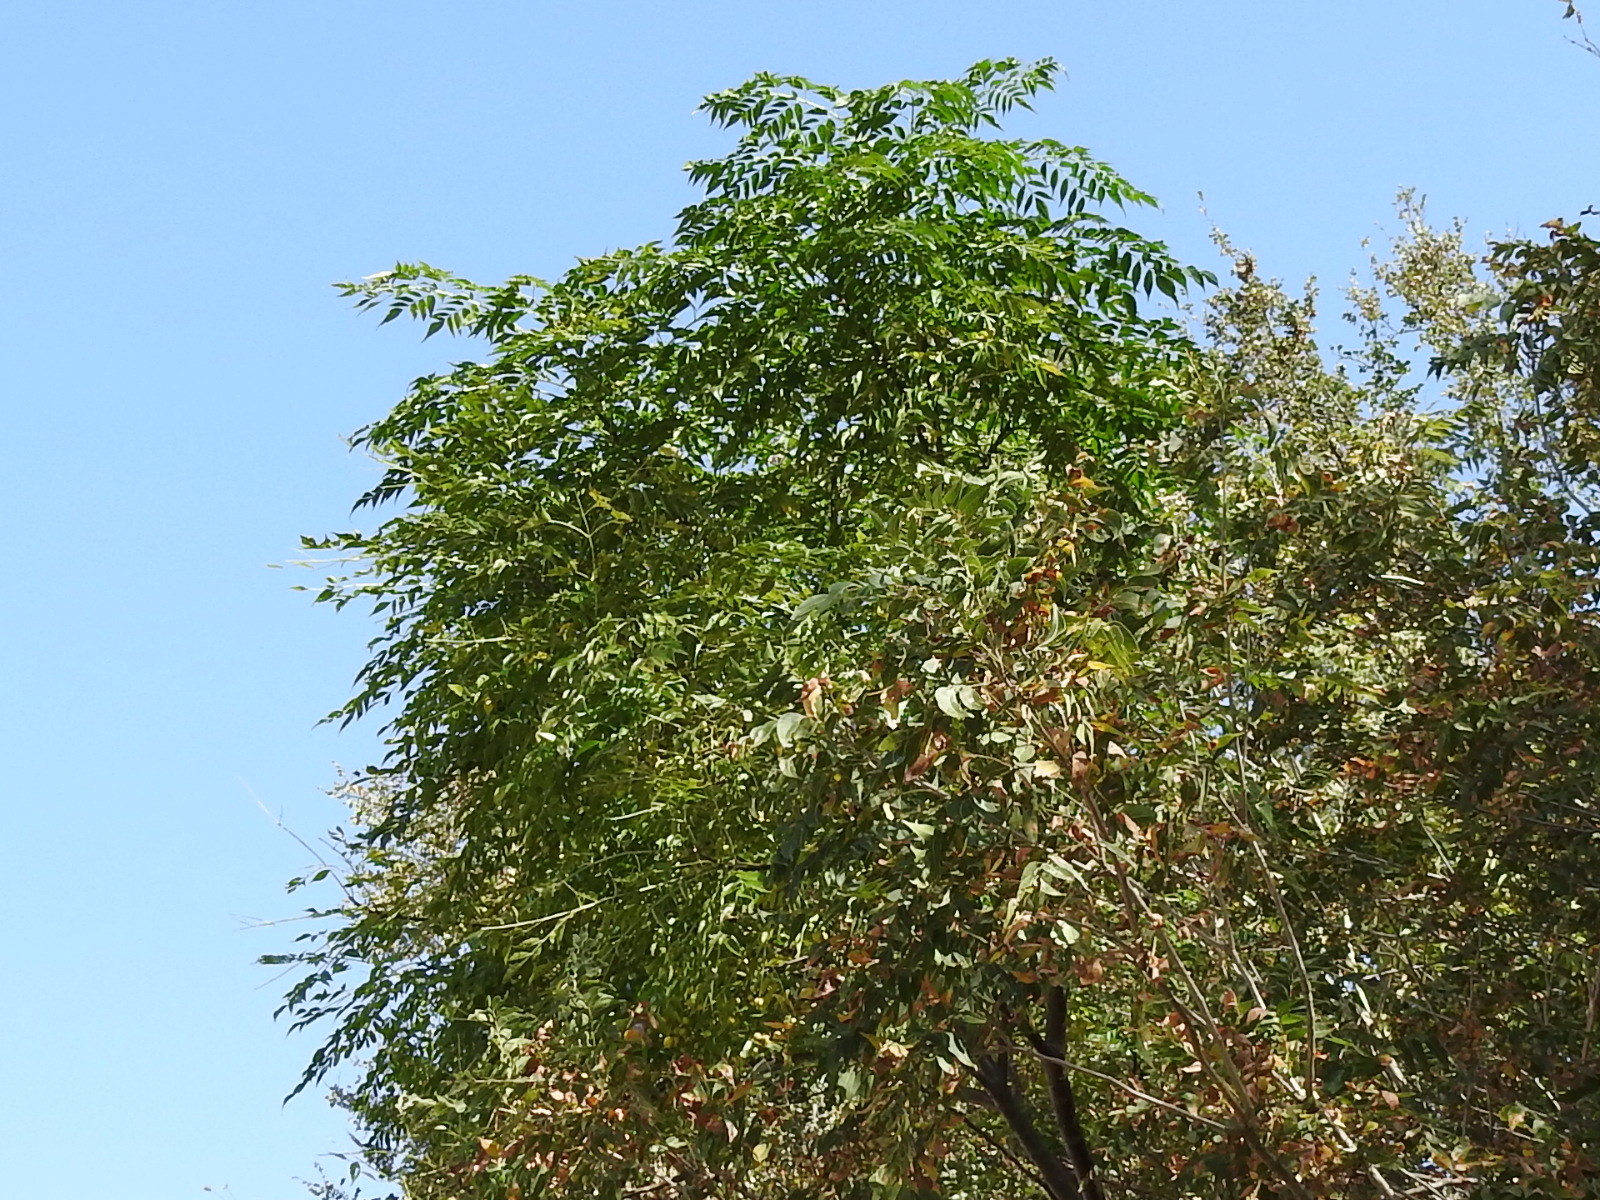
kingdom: Plantae
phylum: Tracheophyta
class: Magnoliopsida
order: Sapindales
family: Meliaceae
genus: Melia
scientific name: Melia azedarach
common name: Chinaberrytree
